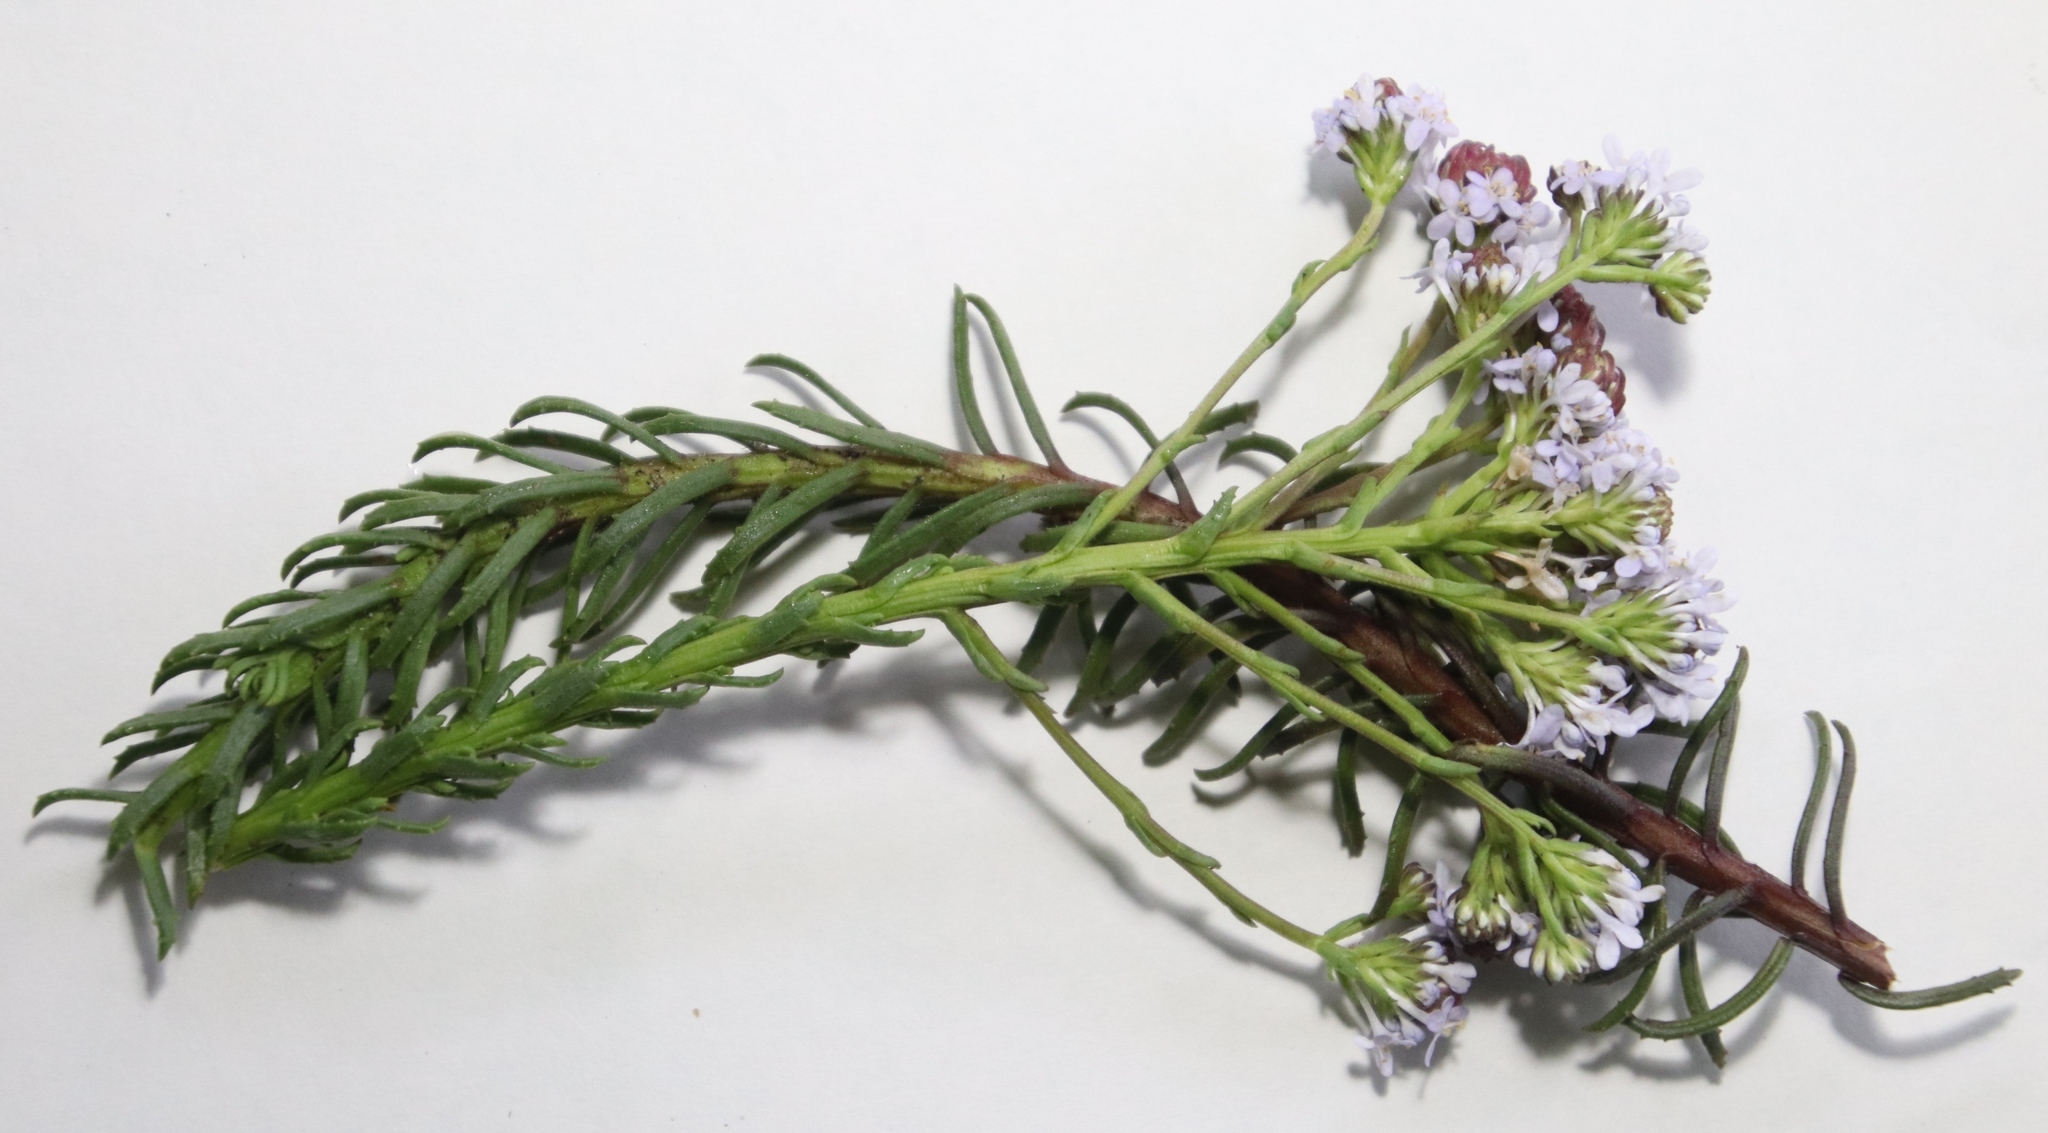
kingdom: Plantae
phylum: Tracheophyta
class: Magnoliopsida
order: Lamiales
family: Scrophulariaceae
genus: Pseudoselago
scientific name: Pseudoselago spuria
